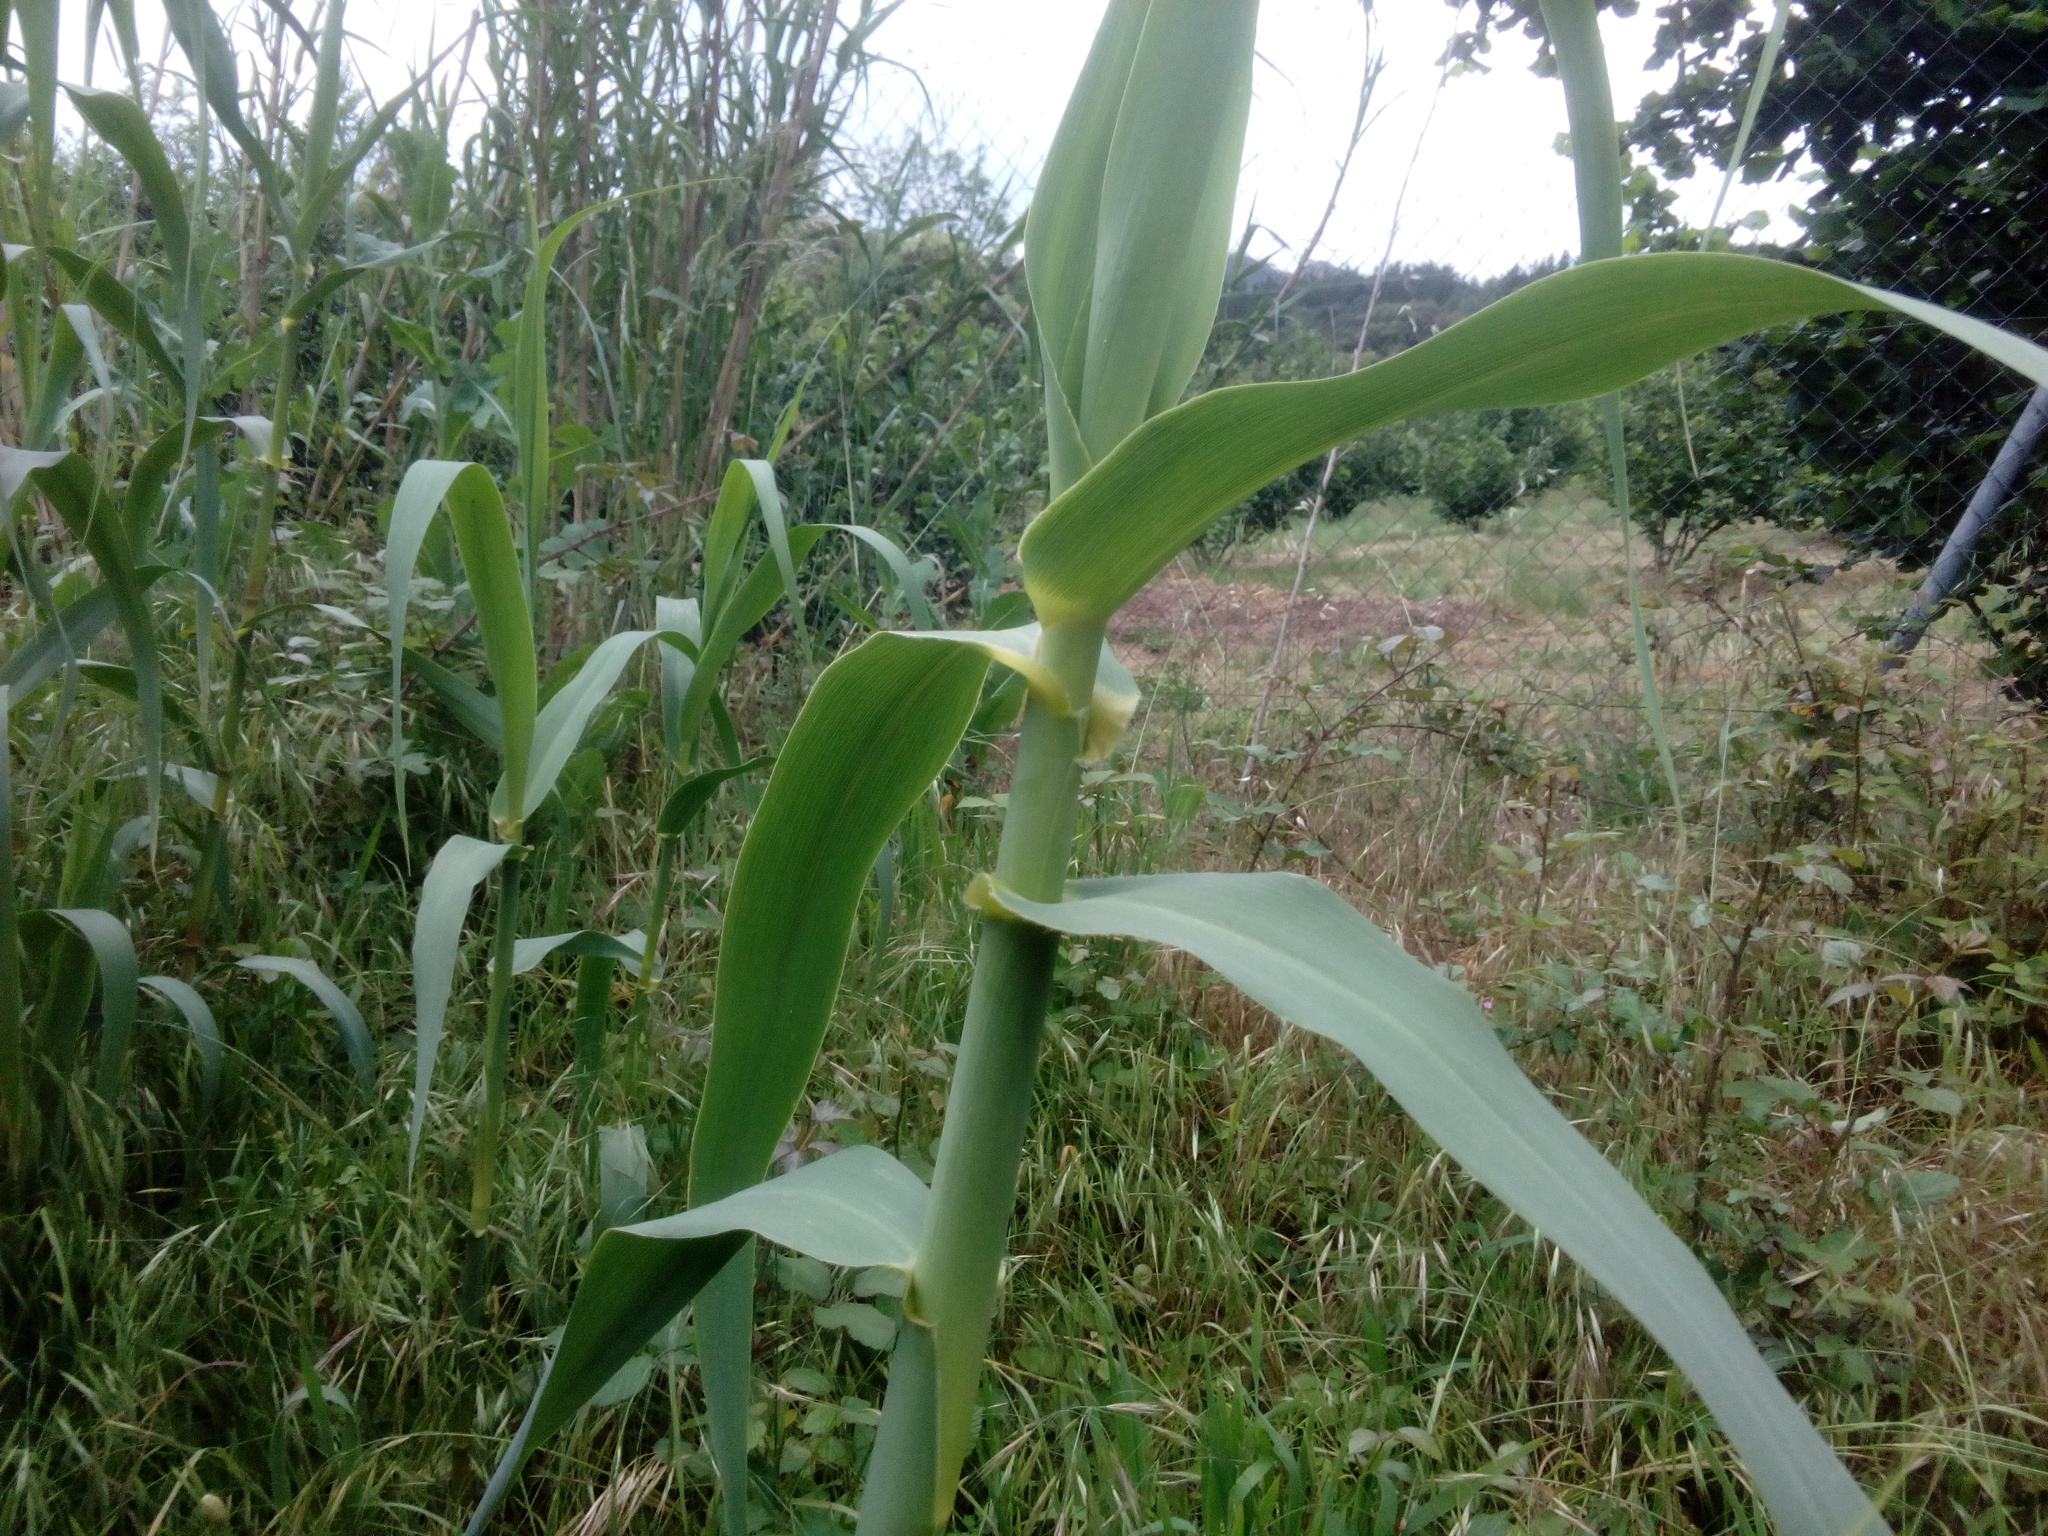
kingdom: Plantae
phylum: Tracheophyta
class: Liliopsida
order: Poales
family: Poaceae
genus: Arundo
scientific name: Arundo donax
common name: Giant reed
